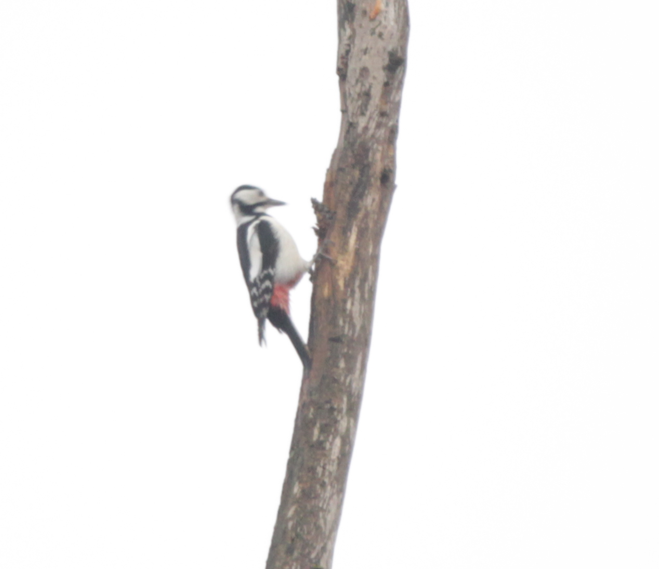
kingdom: Animalia
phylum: Chordata
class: Aves
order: Piciformes
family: Picidae
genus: Dendrocopos
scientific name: Dendrocopos major
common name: Great spotted woodpecker
